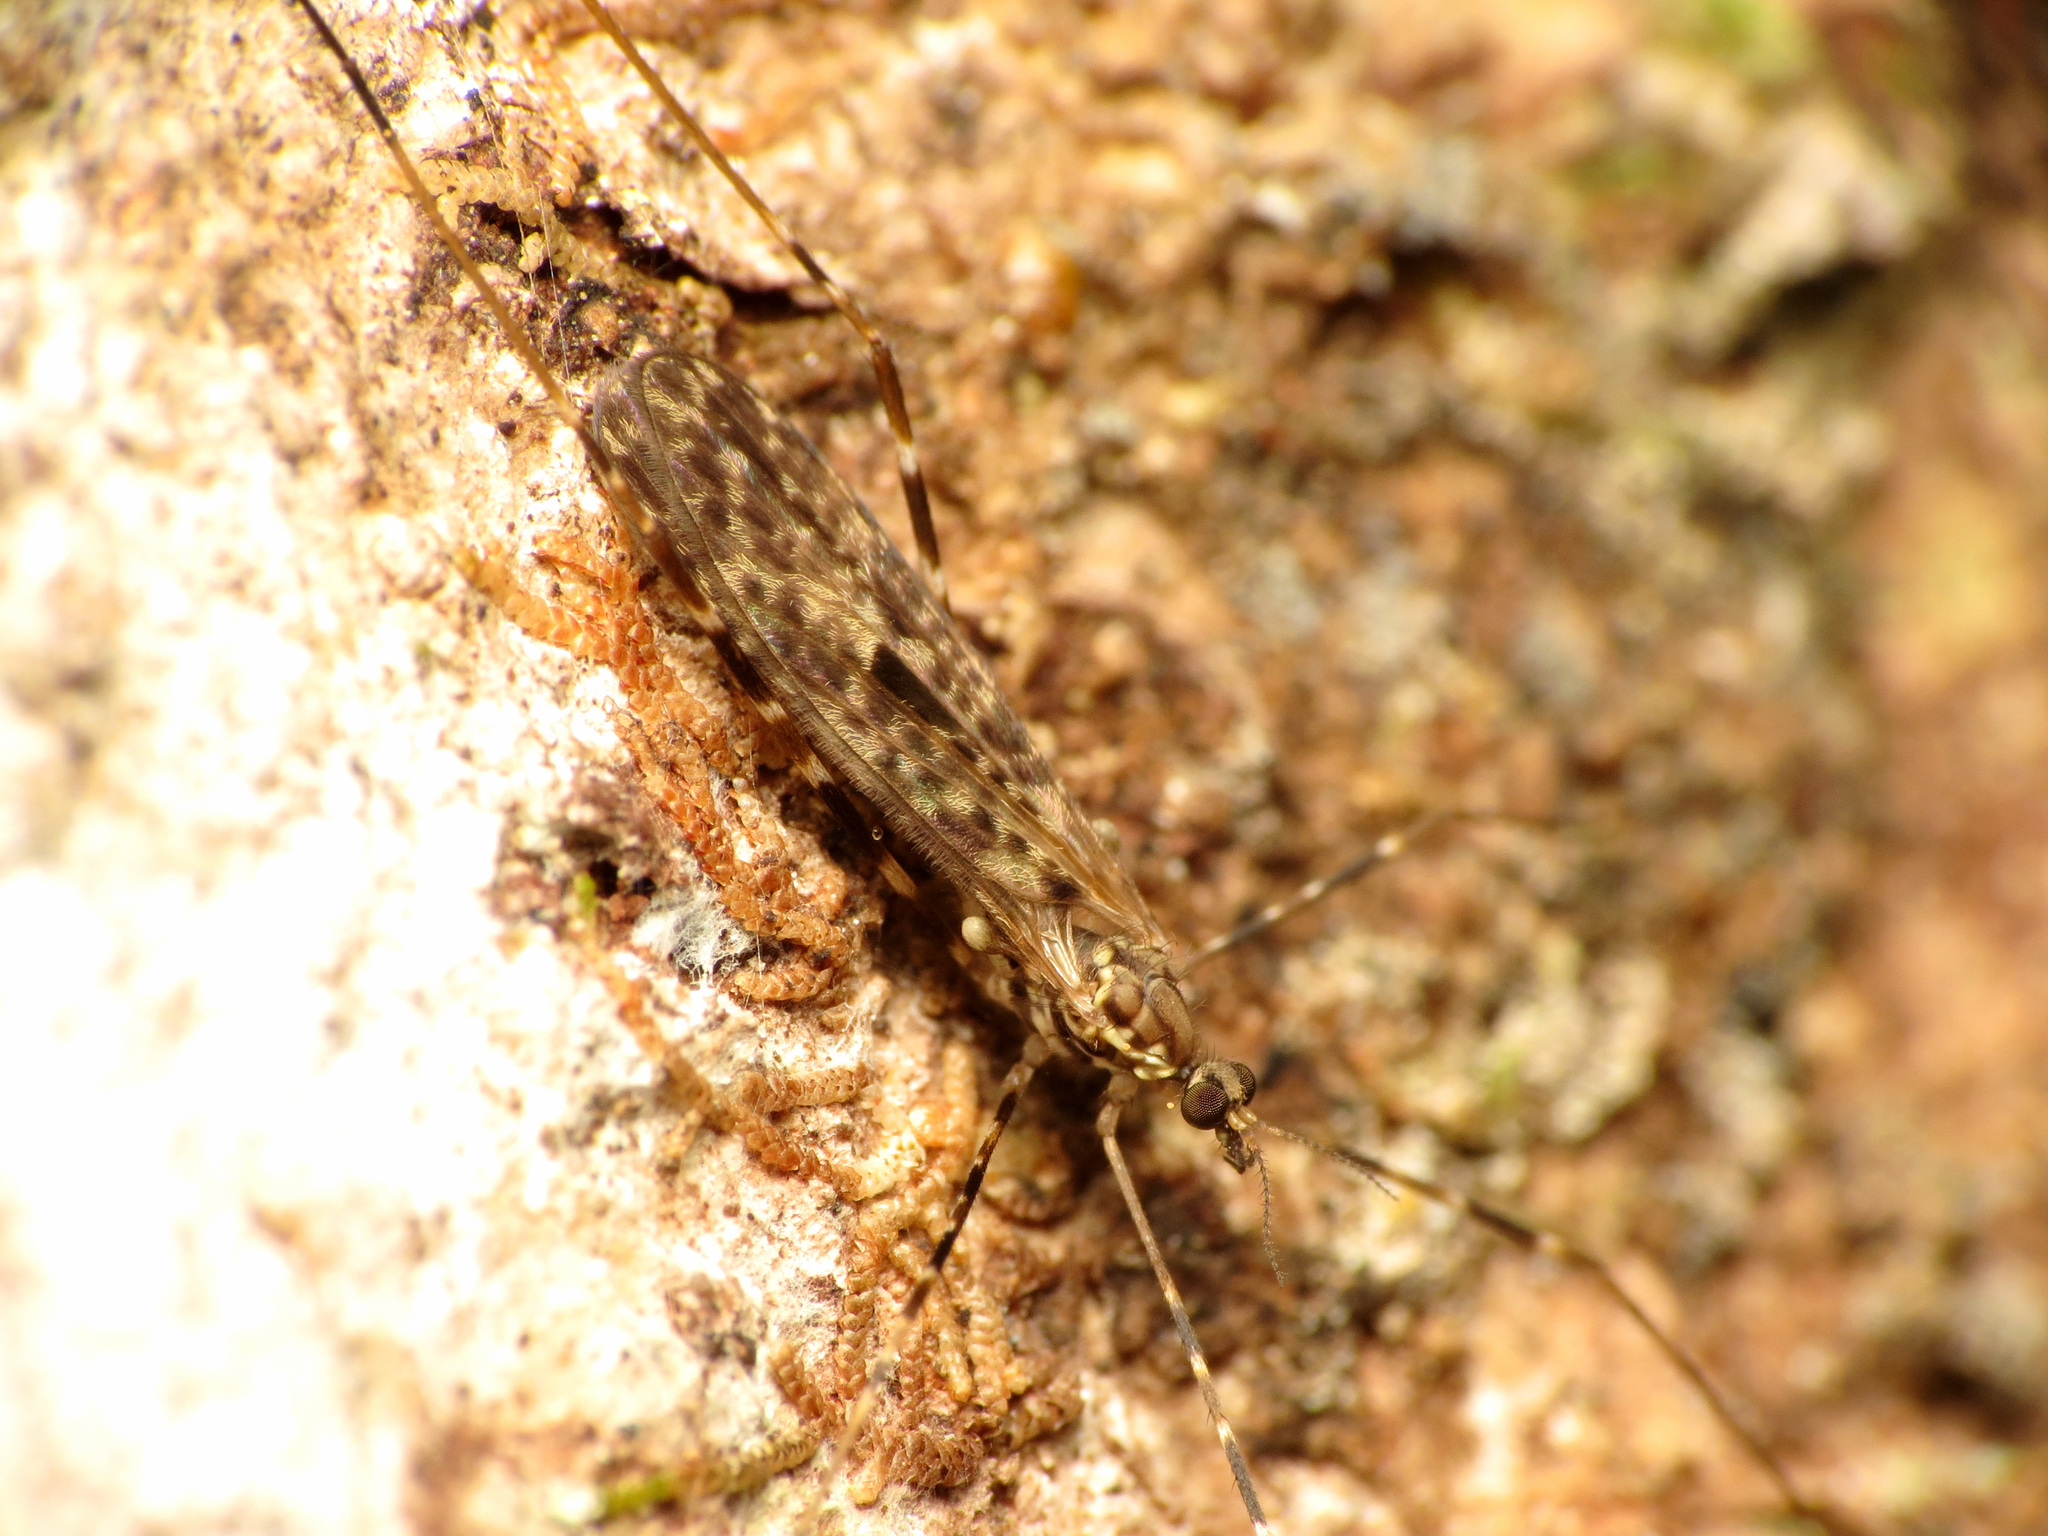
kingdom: Animalia
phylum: Arthropoda
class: Insecta
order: Diptera
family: Limoniidae
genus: Amphineurus
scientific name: Amphineurus hudsoni
